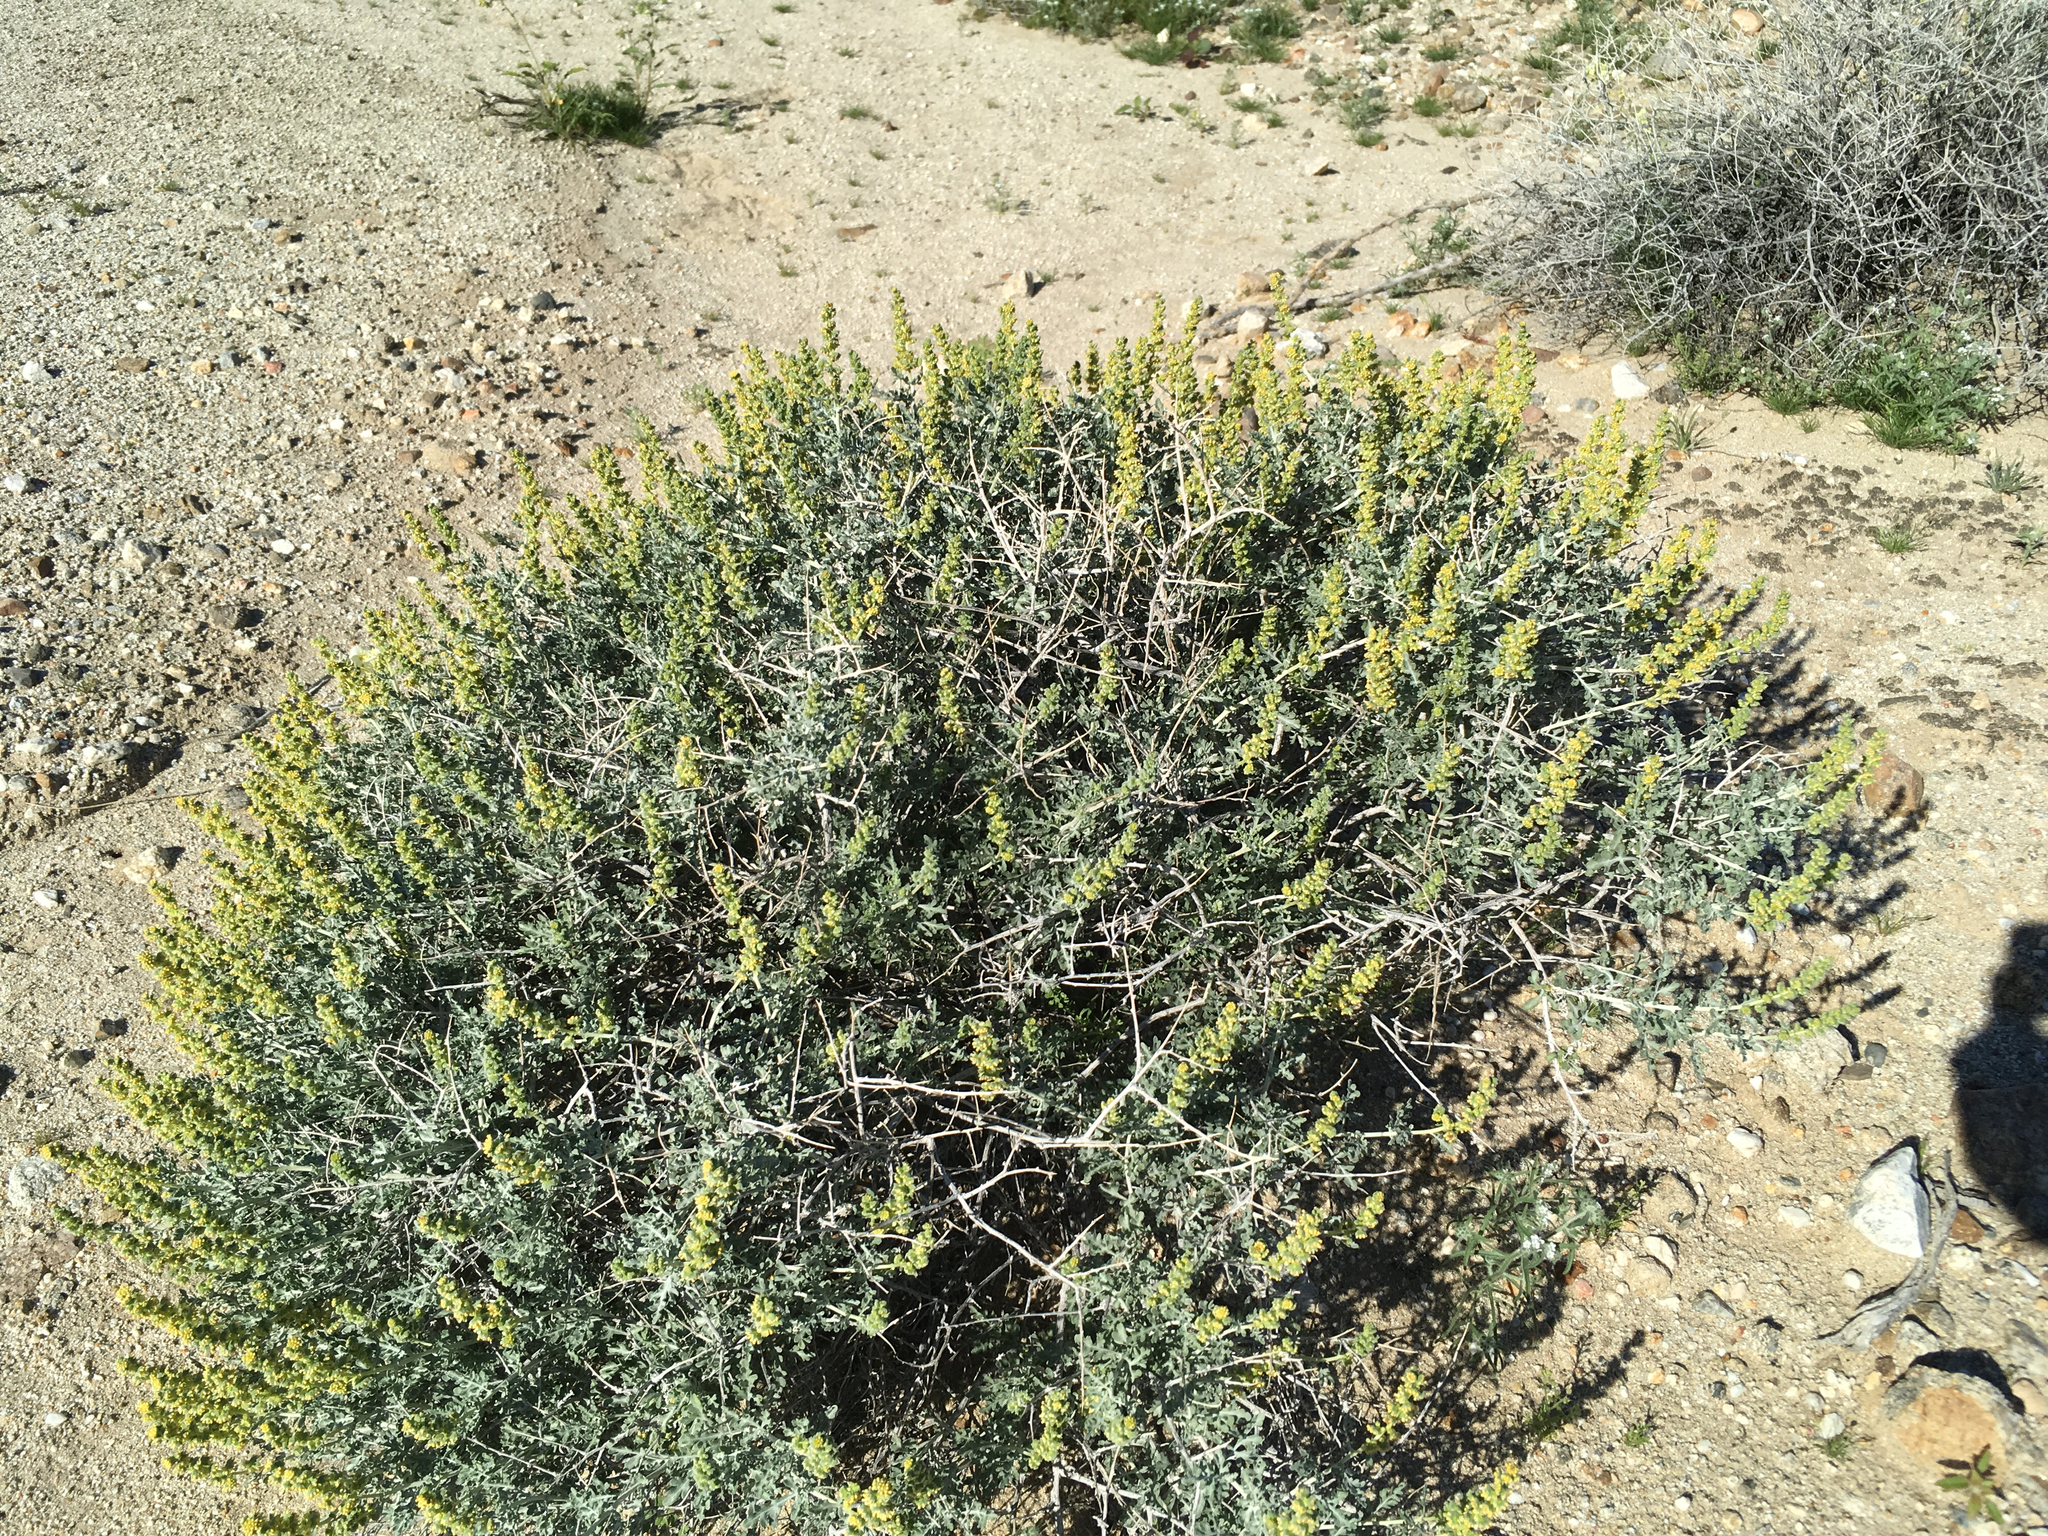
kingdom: Plantae
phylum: Tracheophyta
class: Magnoliopsida
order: Asterales
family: Asteraceae
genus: Ambrosia
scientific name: Ambrosia dumosa
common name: Bur-sage
